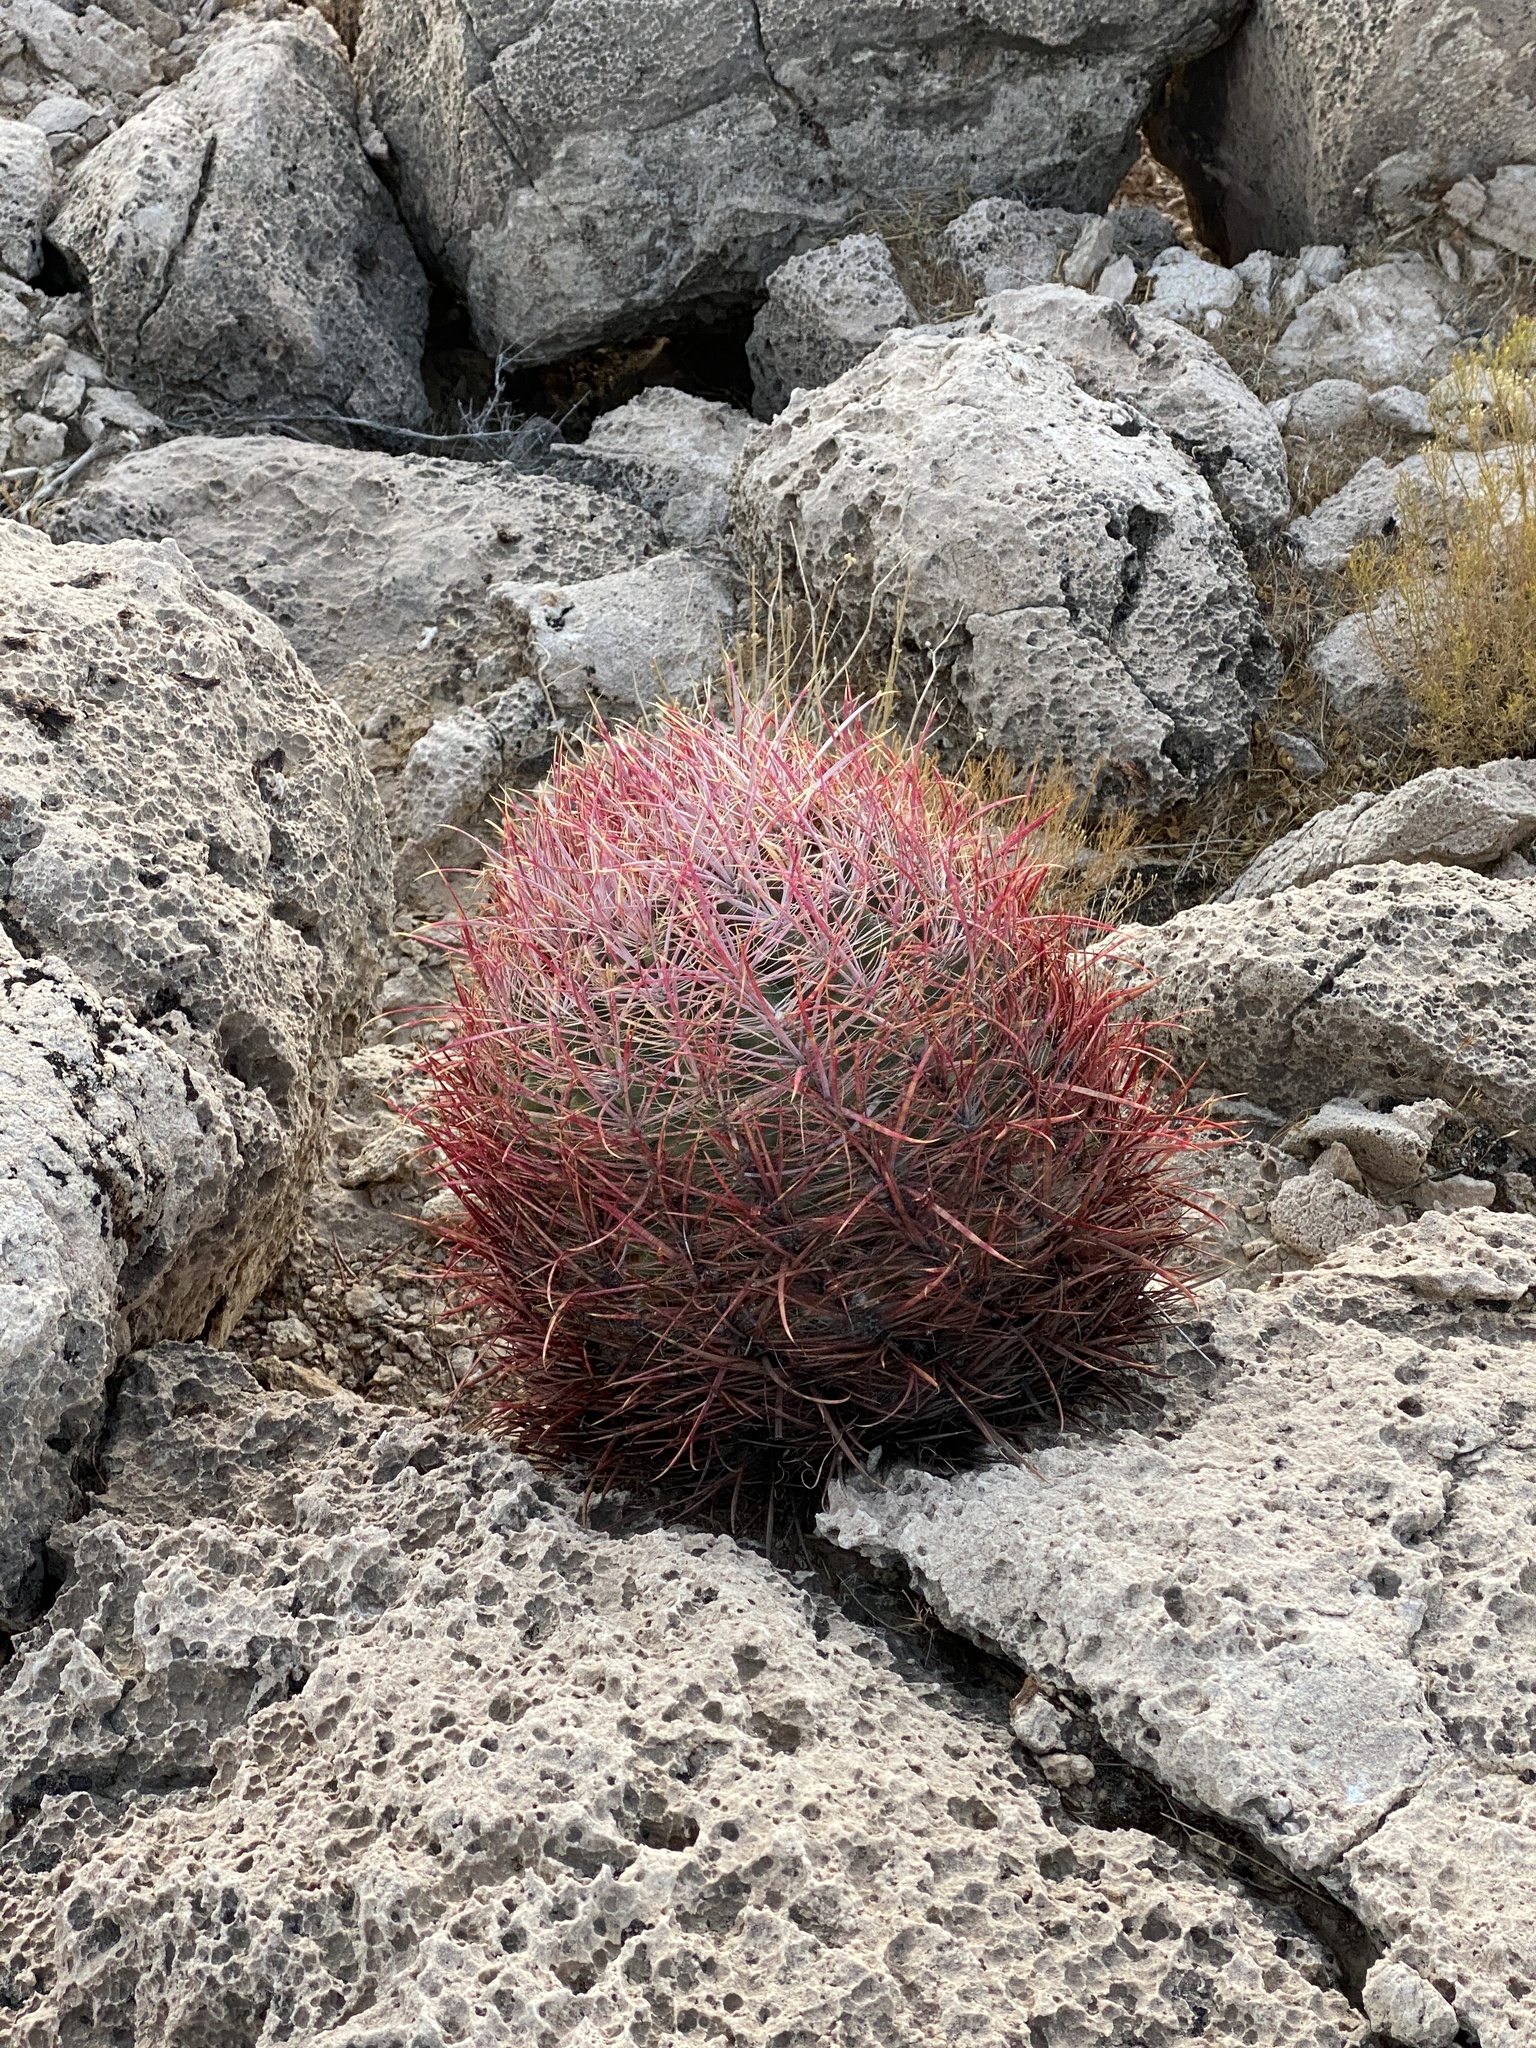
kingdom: Plantae
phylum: Tracheophyta
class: Magnoliopsida
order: Caryophyllales
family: Cactaceae
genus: Ferocactus
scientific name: Ferocactus cylindraceus
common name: California barrel cactus
